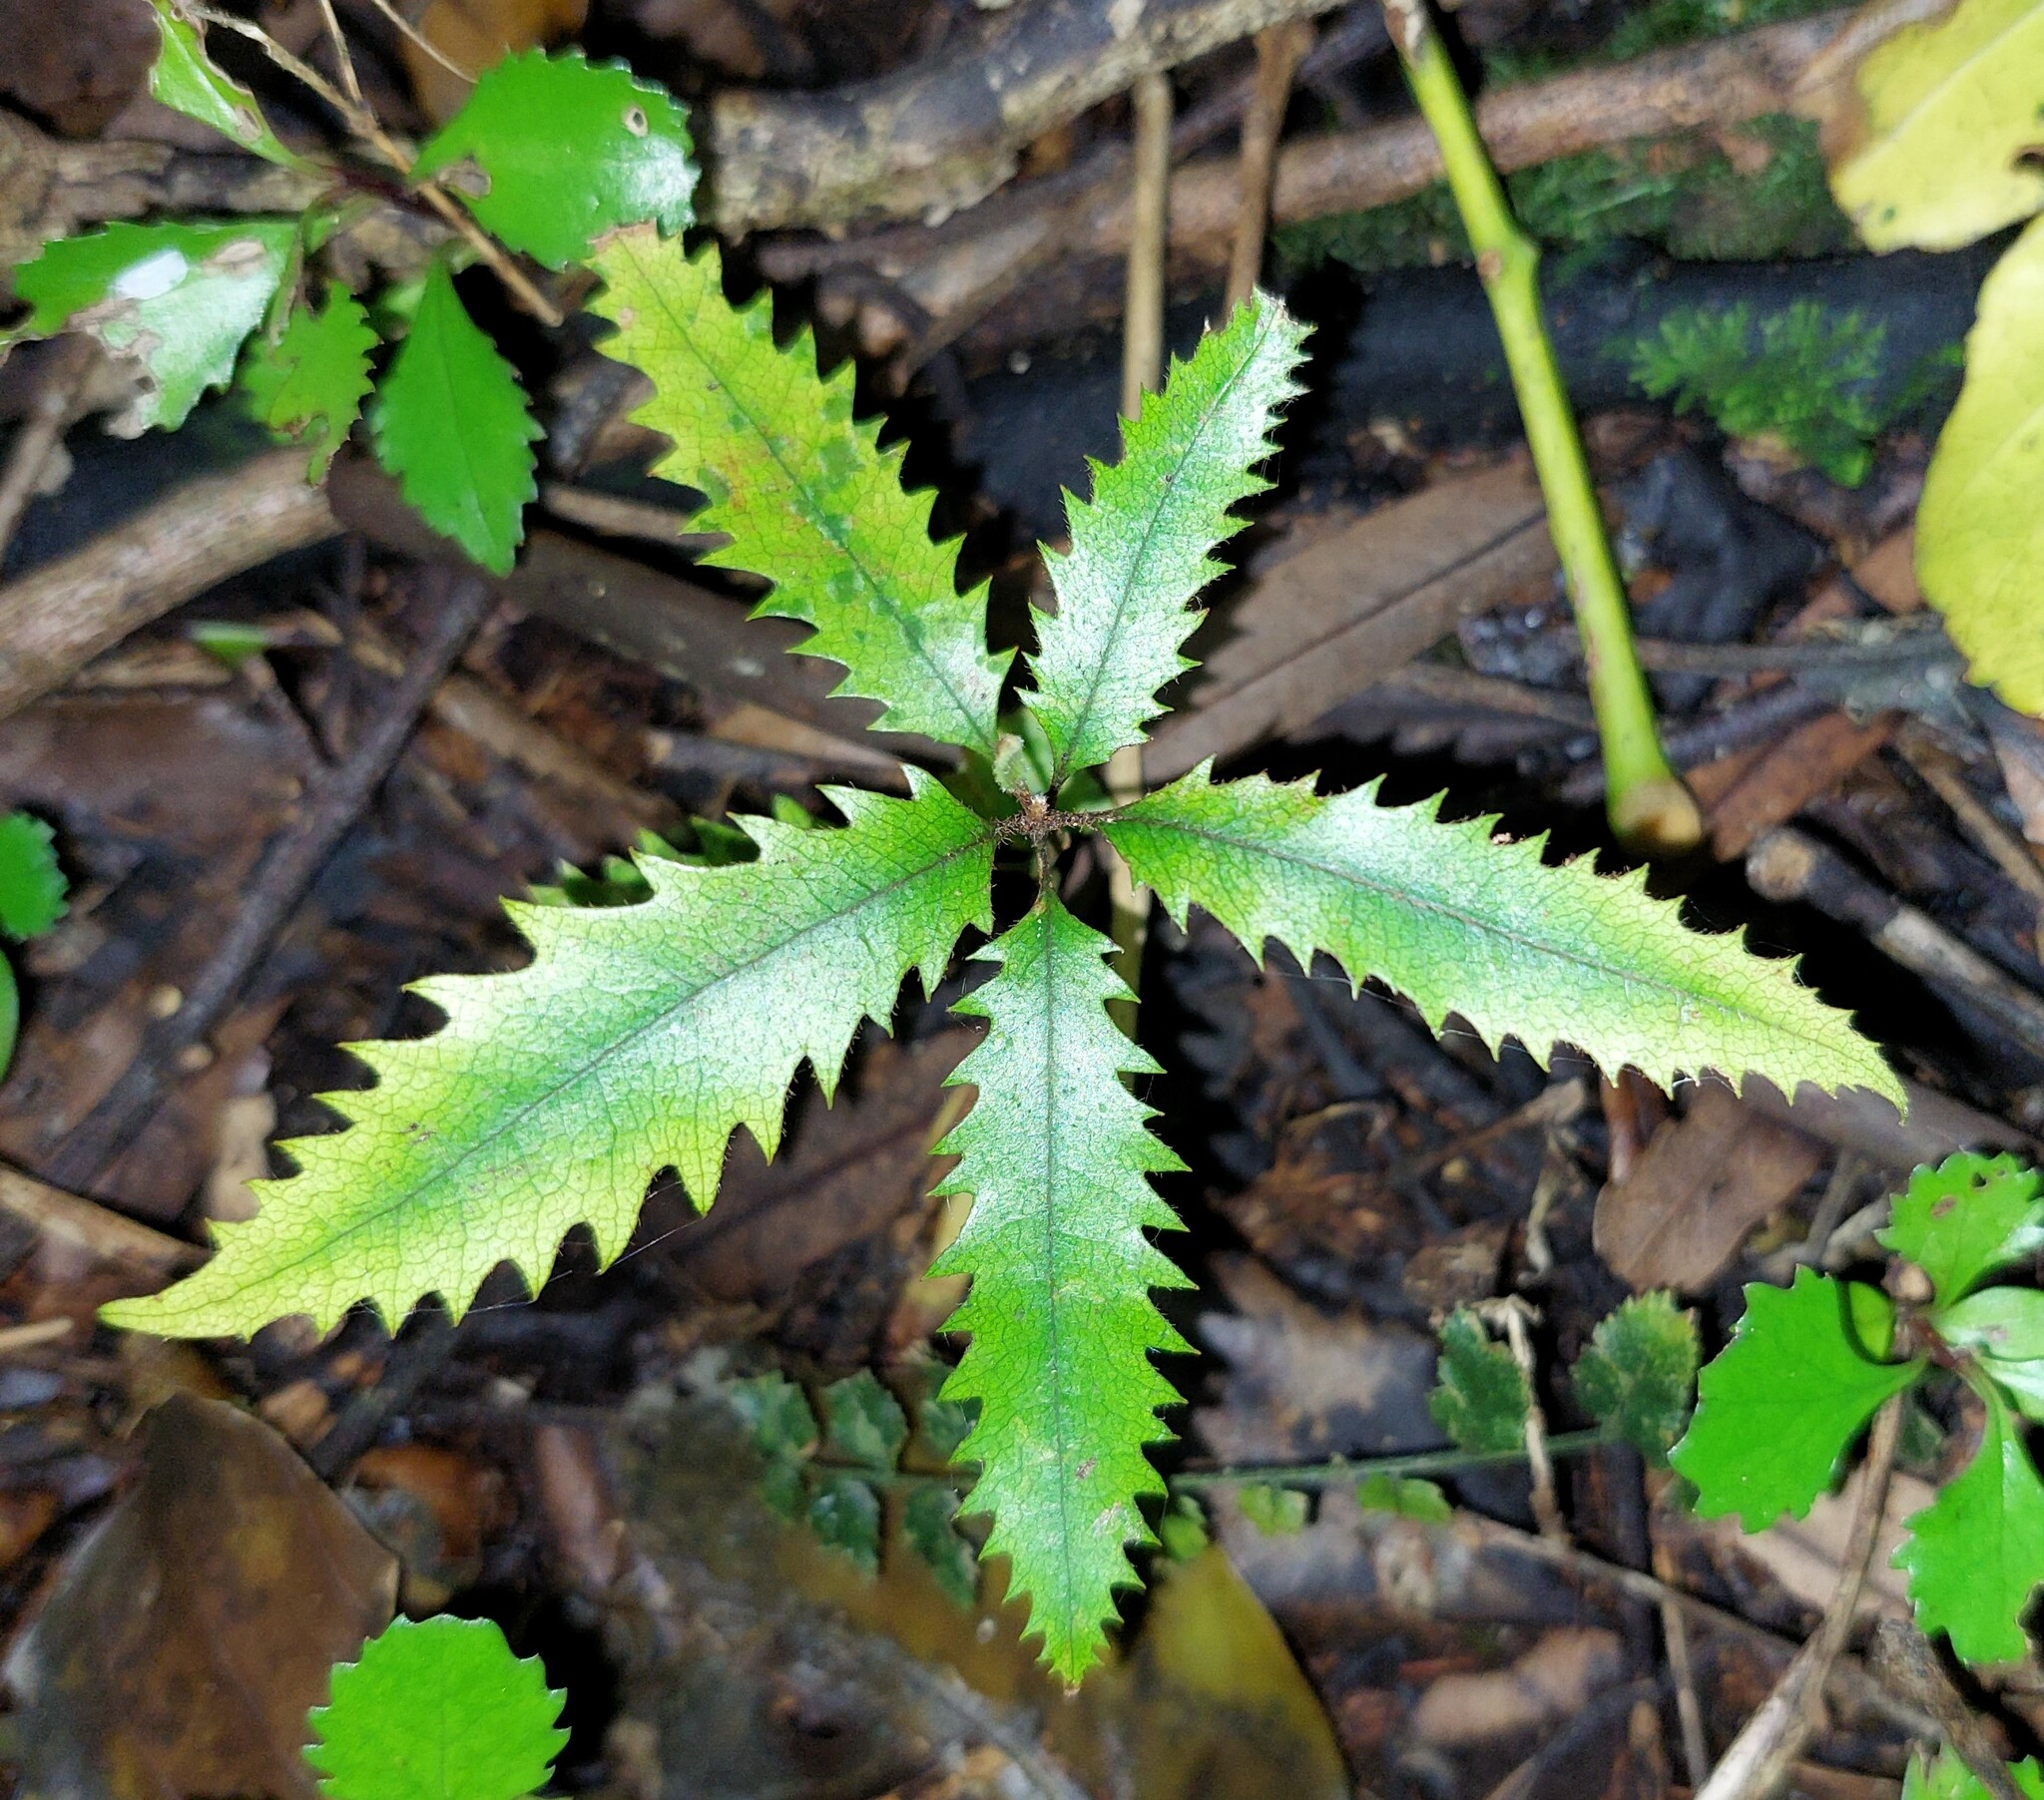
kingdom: Plantae
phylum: Tracheophyta
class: Magnoliopsida
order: Proteales
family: Proteaceae
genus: Knightia
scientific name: Knightia excelsa
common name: New zealand-honeysuckle
